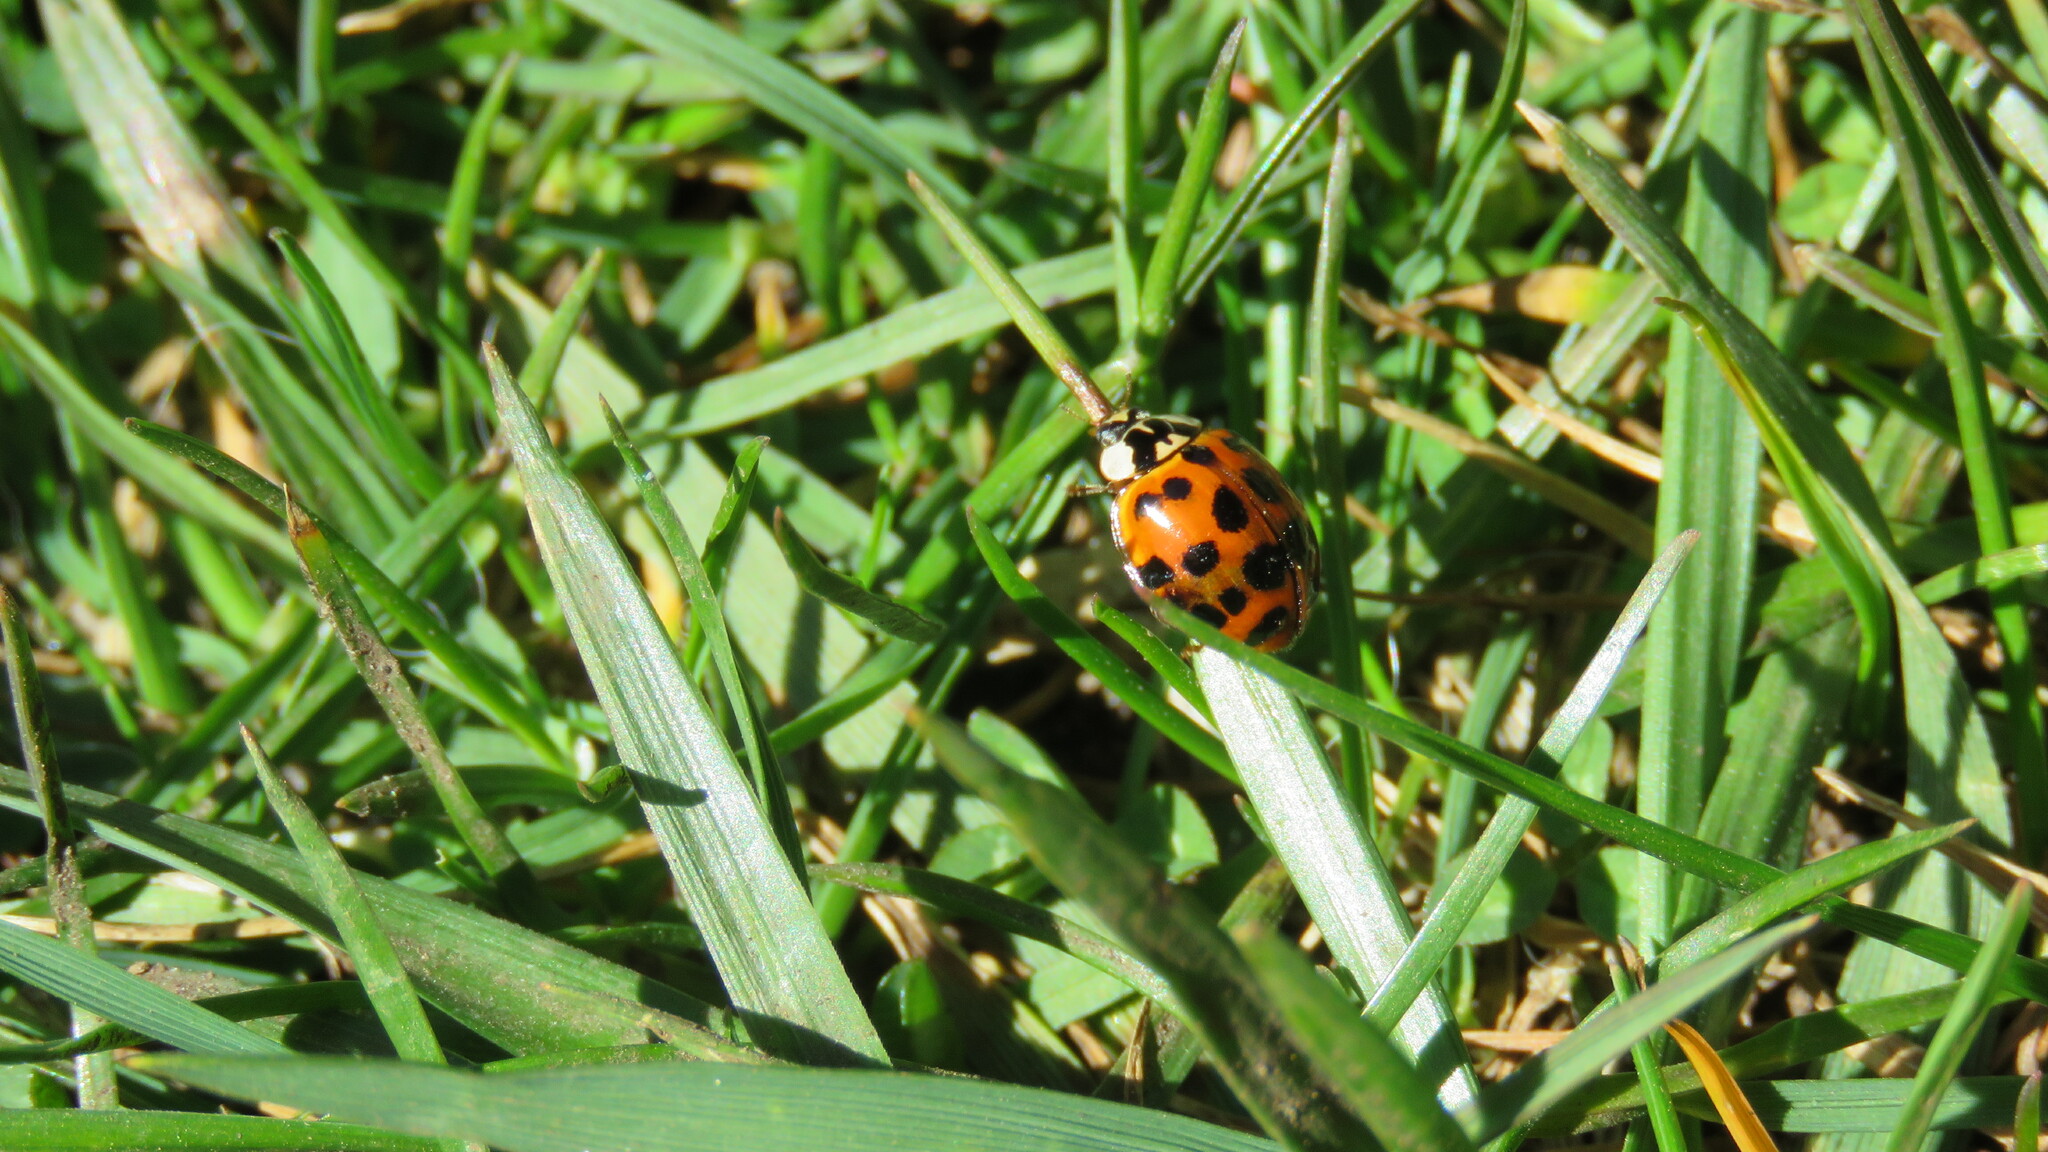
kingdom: Animalia
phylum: Arthropoda
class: Insecta
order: Coleoptera
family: Coccinellidae
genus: Harmonia
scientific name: Harmonia axyridis
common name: Harlequin ladybird
